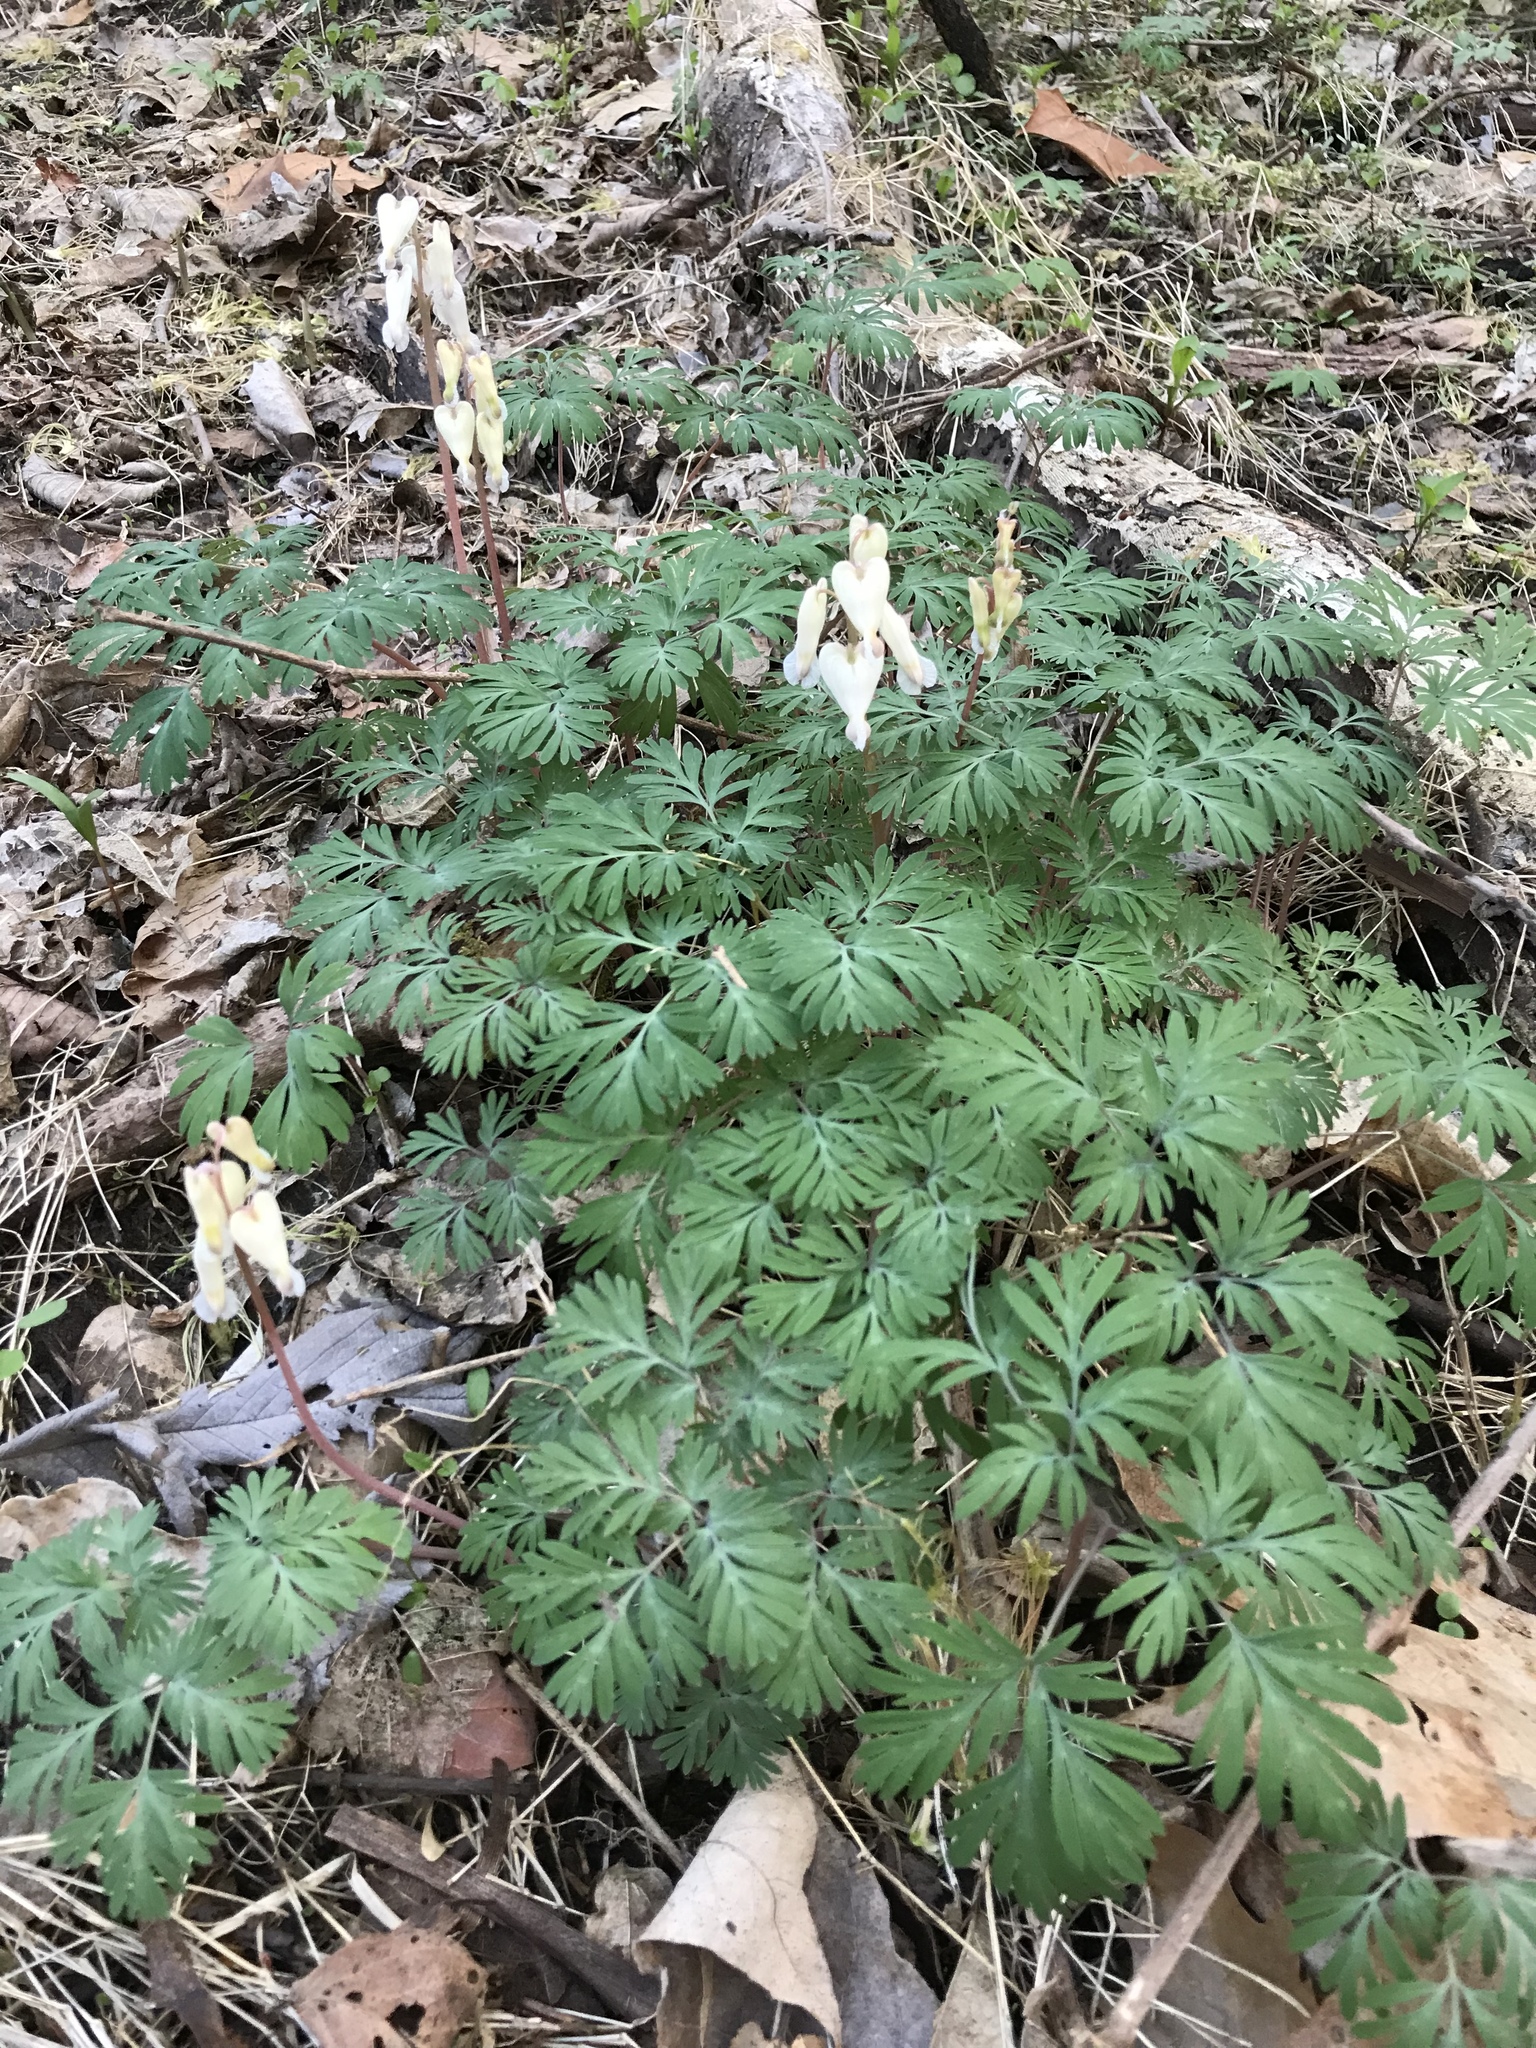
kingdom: Plantae
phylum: Tracheophyta
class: Magnoliopsida
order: Ranunculales
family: Papaveraceae
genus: Dicentra
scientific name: Dicentra canadensis
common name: Squirrel-corn
